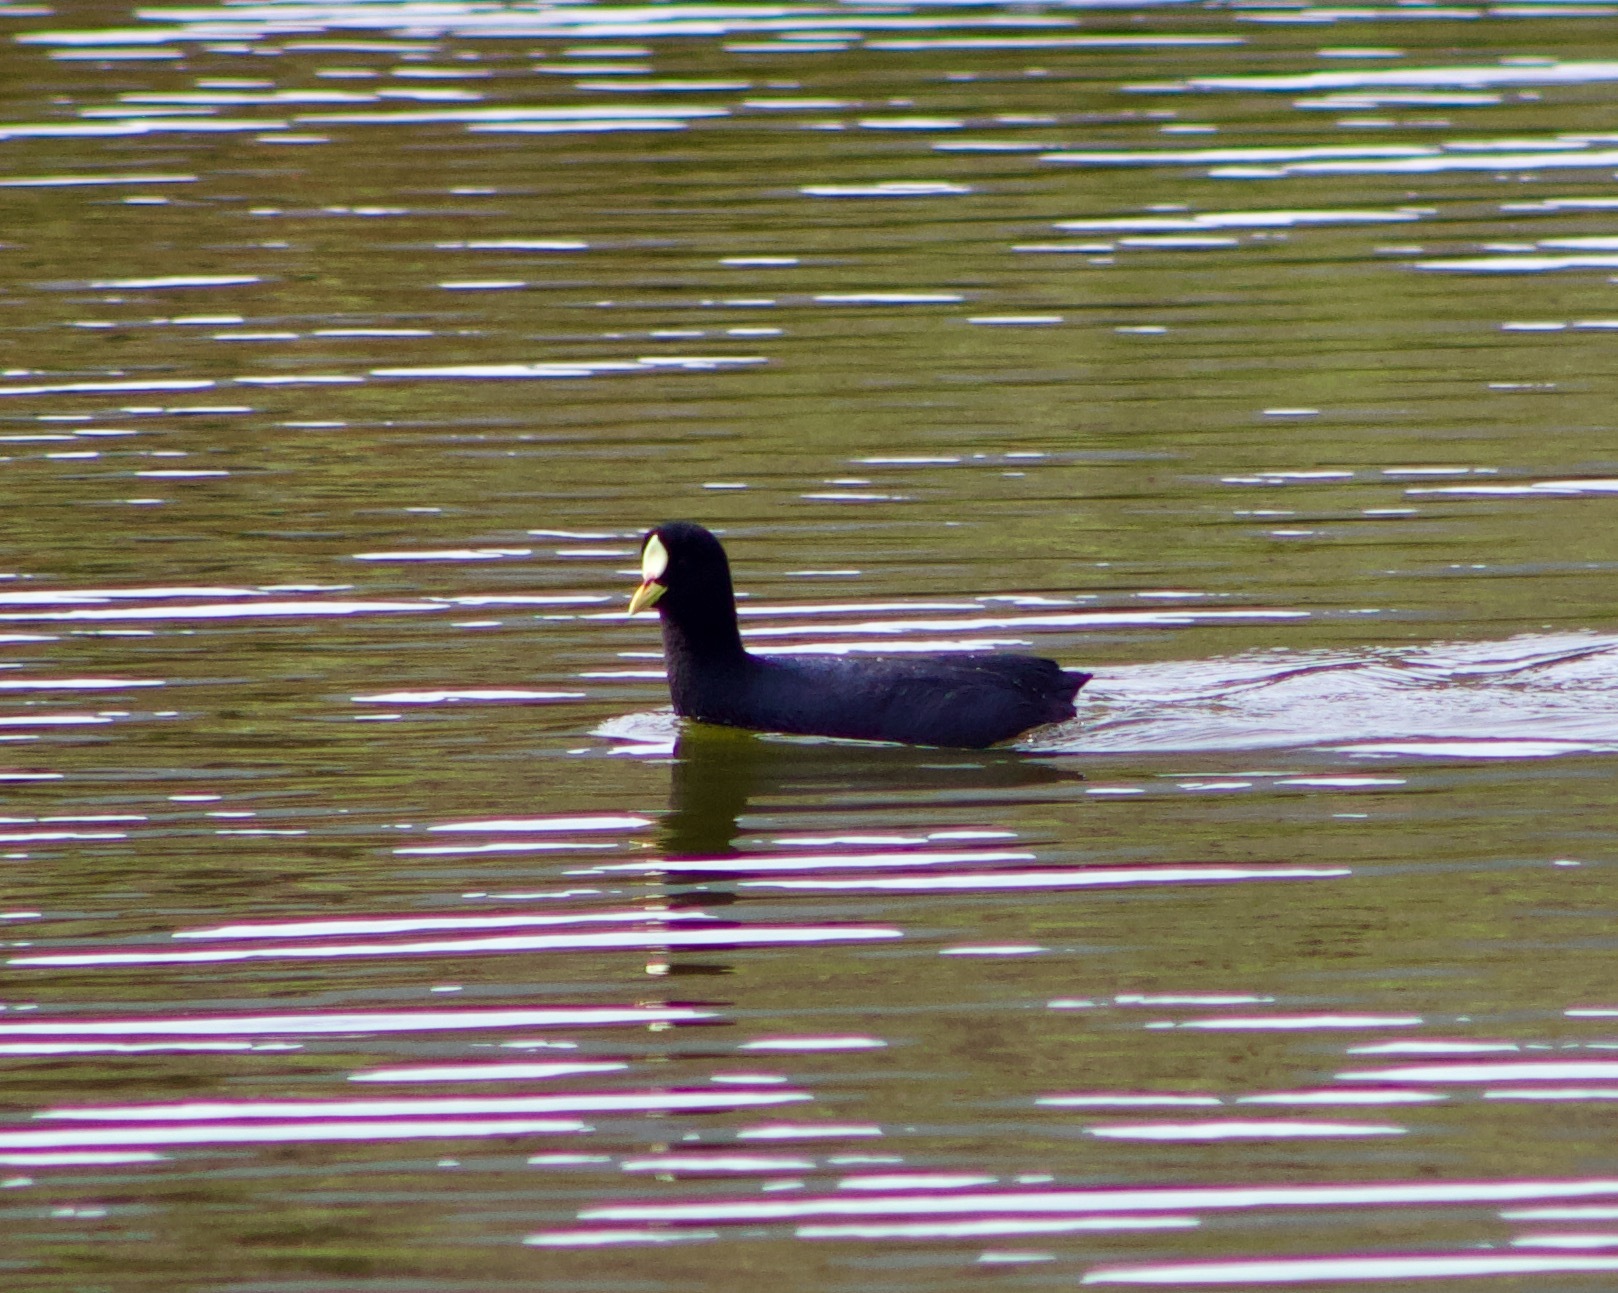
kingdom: Animalia
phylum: Chordata
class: Aves
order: Gruiformes
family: Rallidae
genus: Fulica
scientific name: Fulica armillata
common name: Red-gartered coot
